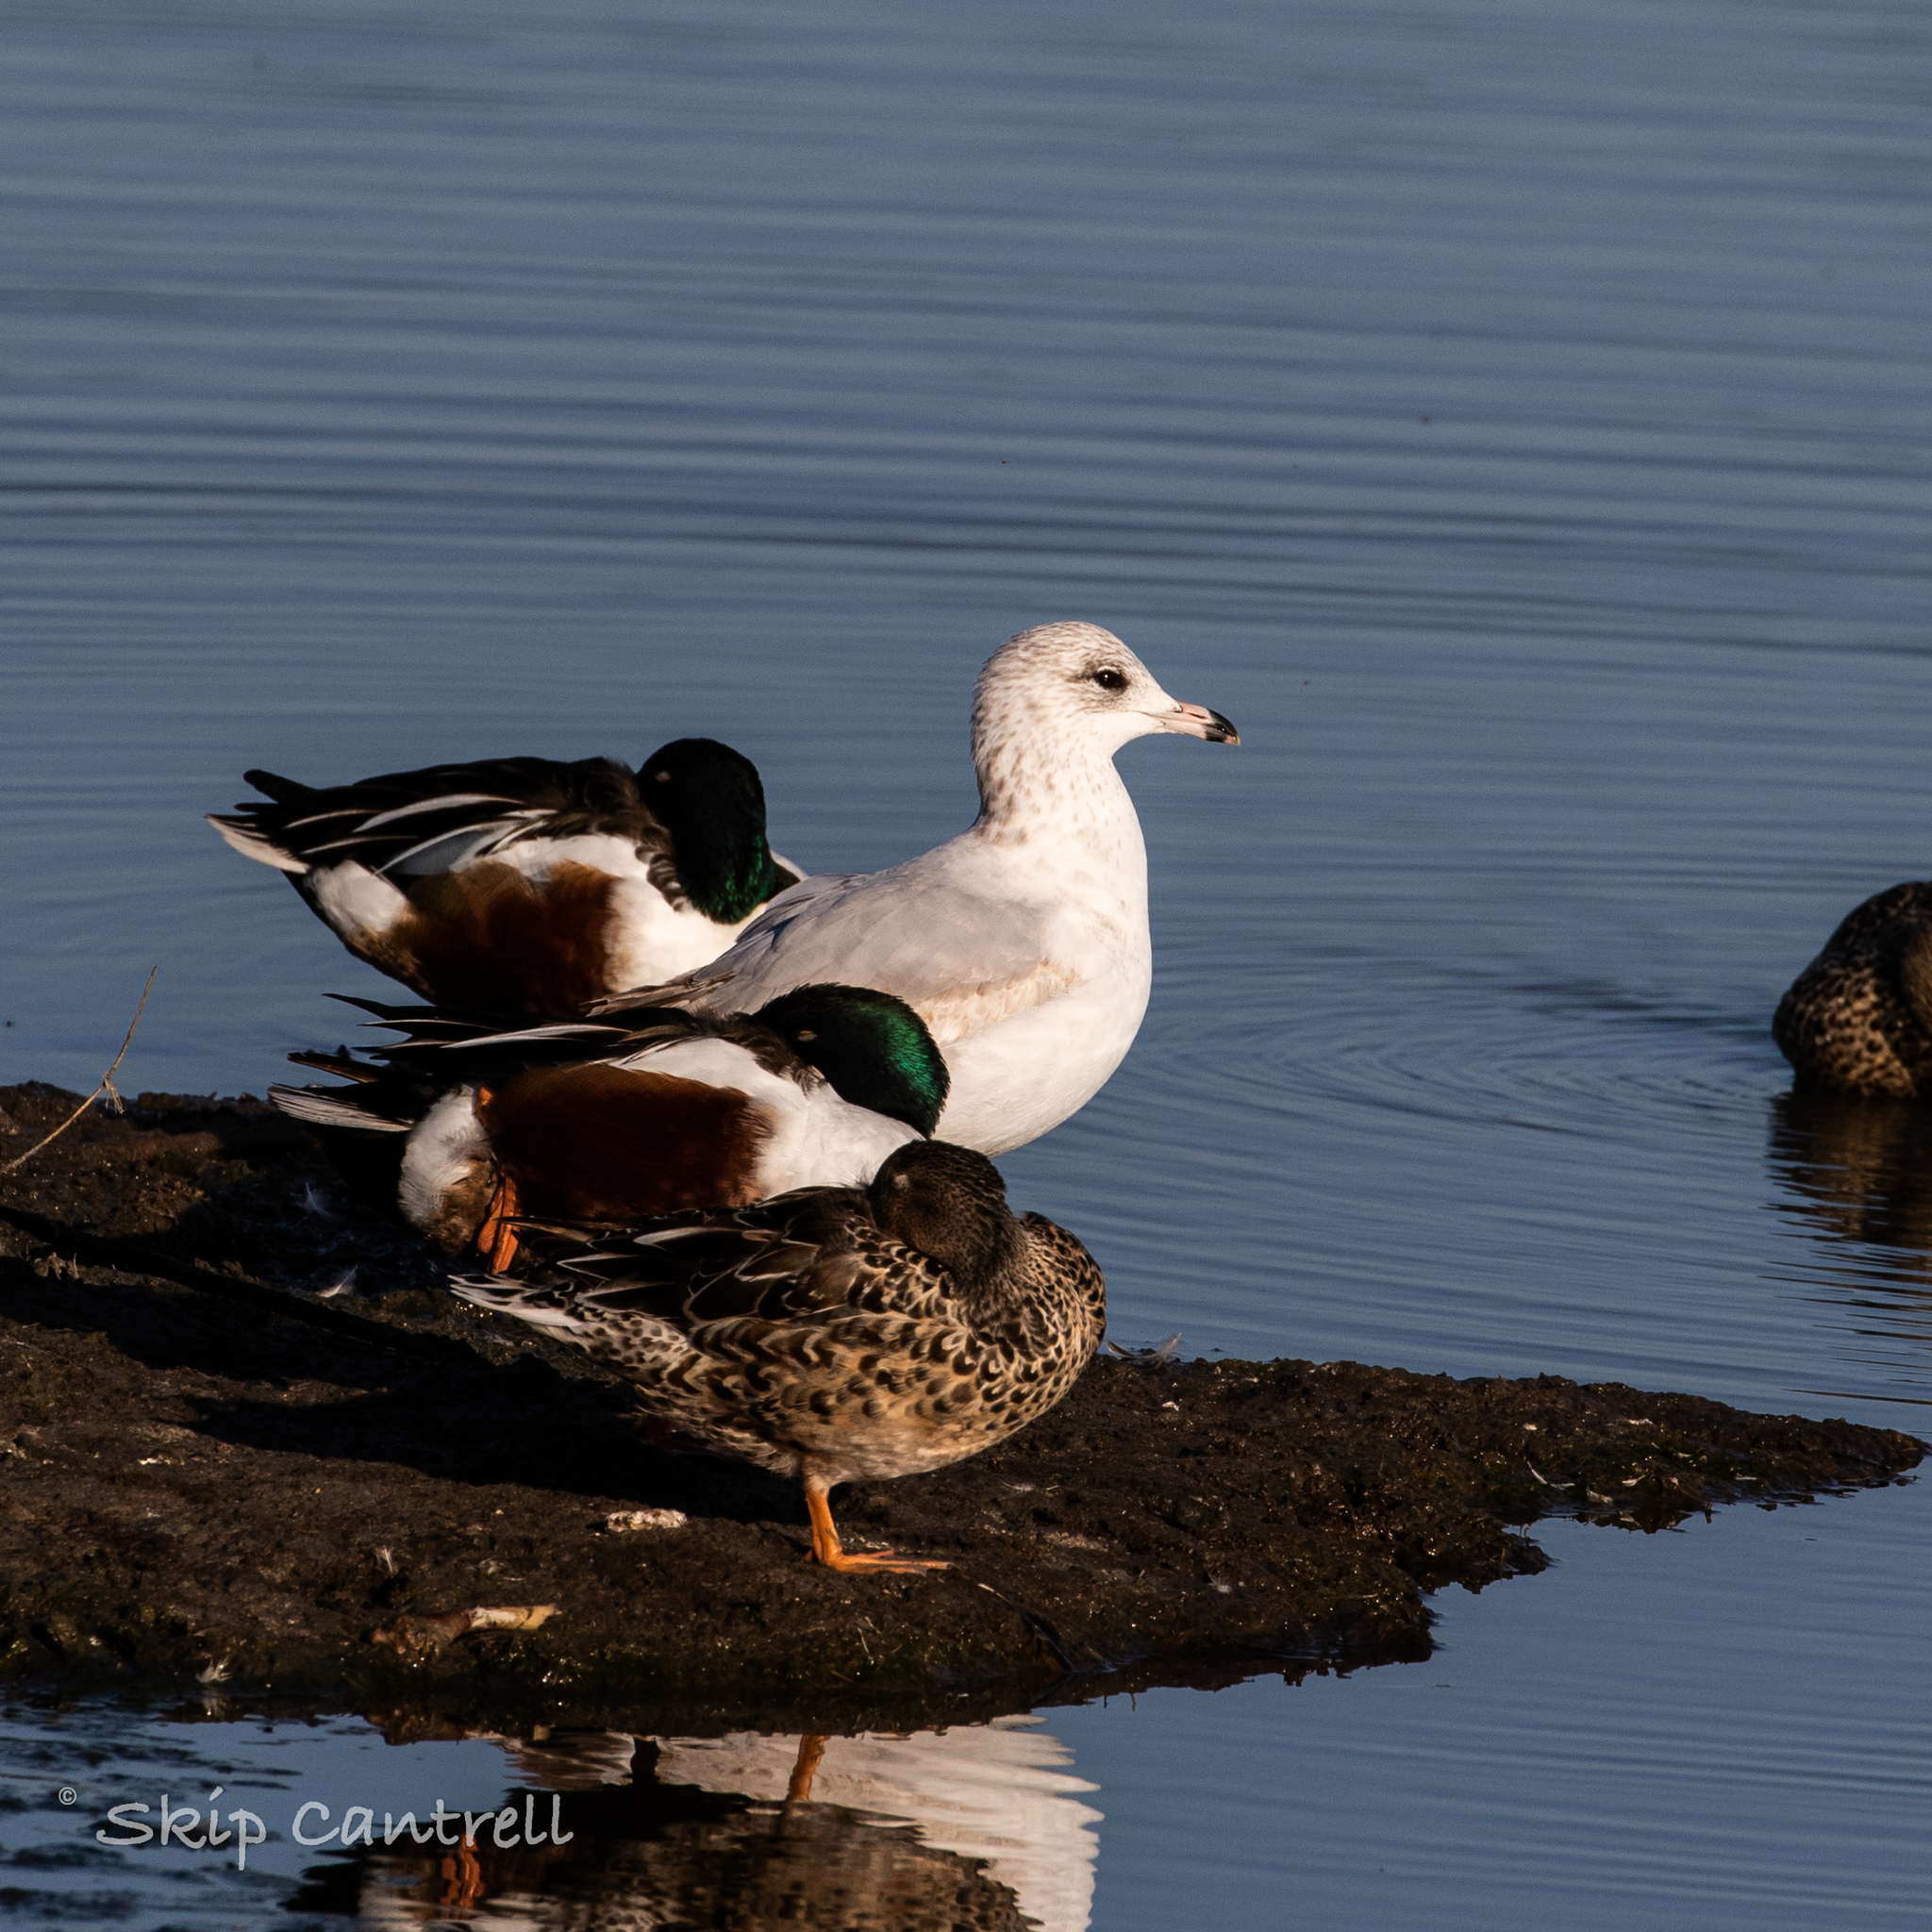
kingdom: Animalia
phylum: Chordata
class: Aves
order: Charadriiformes
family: Laridae
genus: Larus
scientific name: Larus delawarensis
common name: Ring-billed gull
